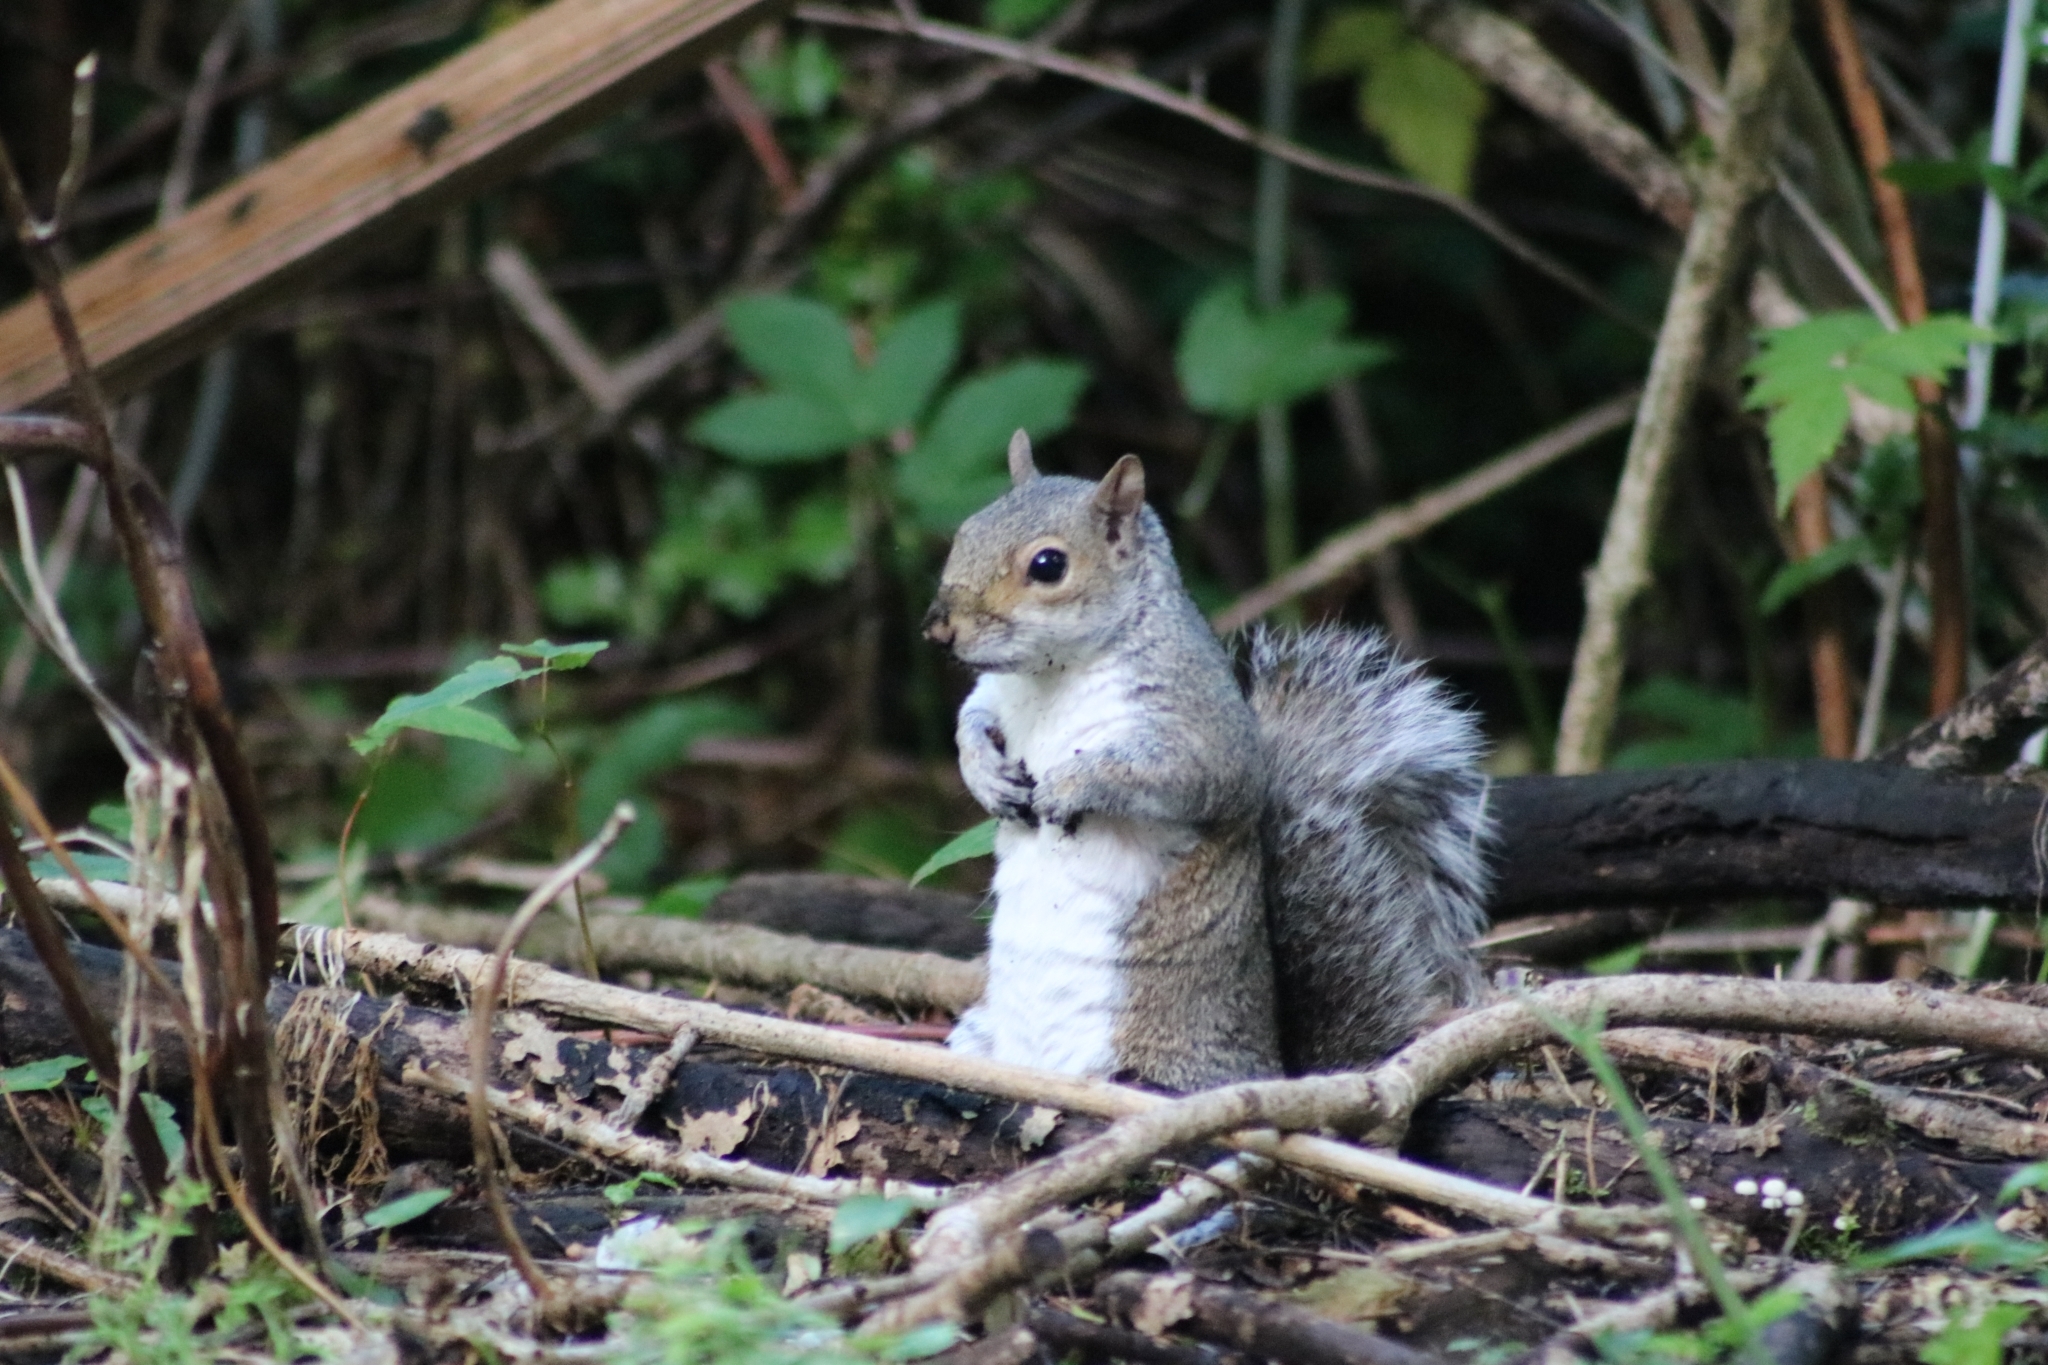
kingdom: Animalia
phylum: Chordata
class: Mammalia
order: Rodentia
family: Sciuridae
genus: Sciurus
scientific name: Sciurus carolinensis
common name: Eastern gray squirrel
